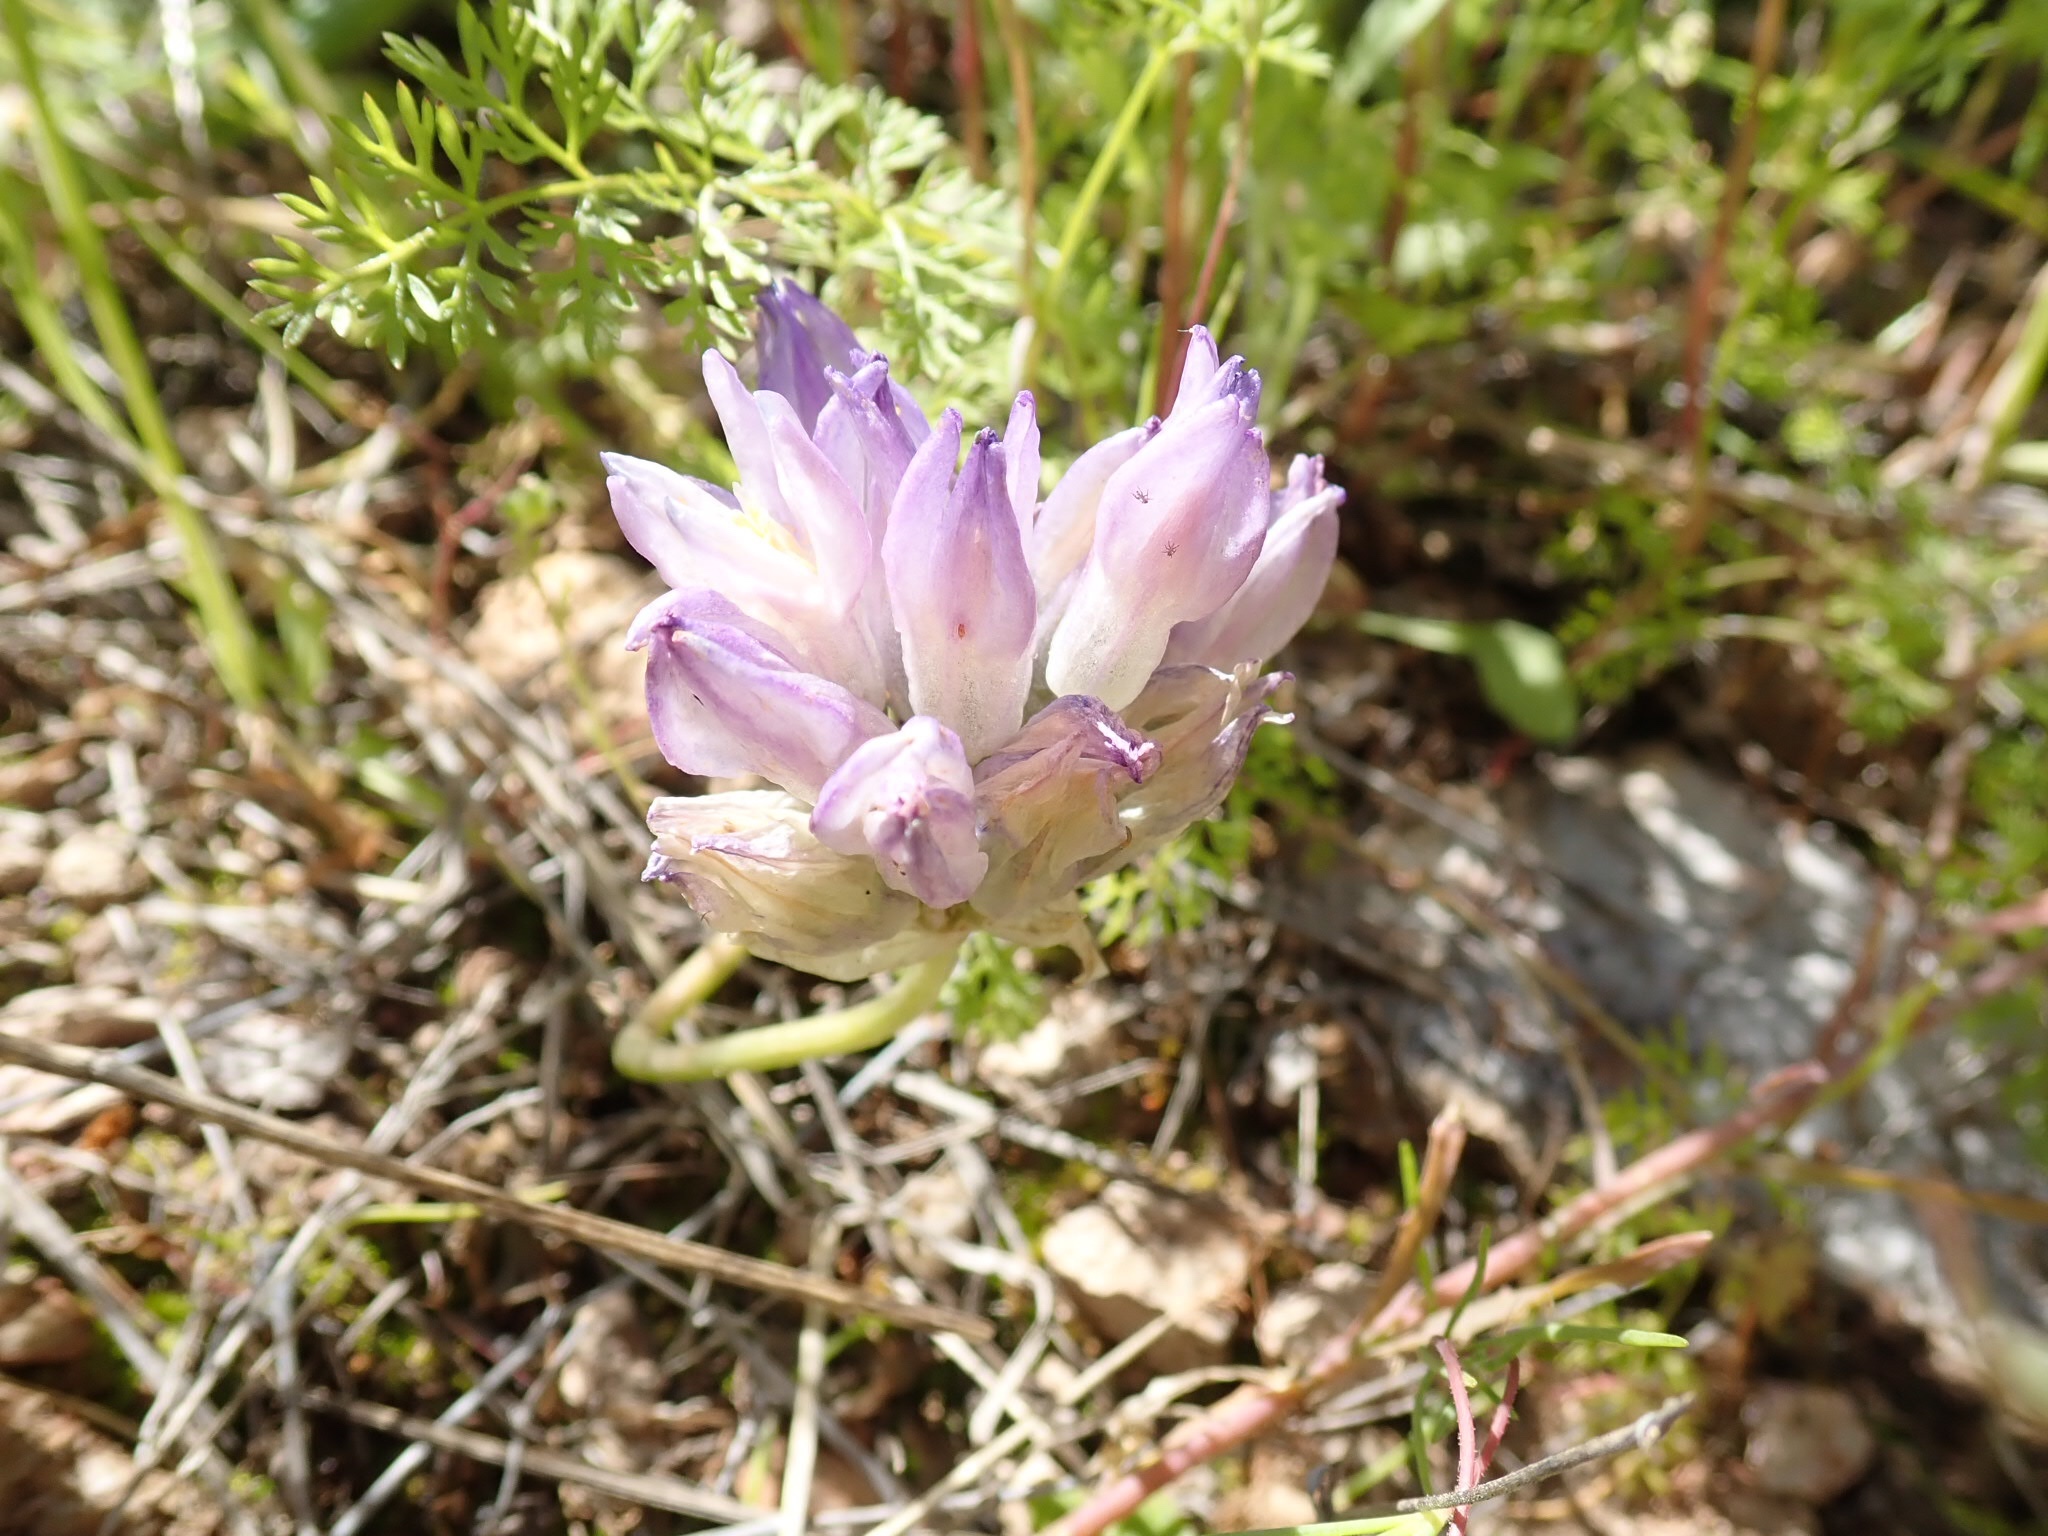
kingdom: Plantae
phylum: Tracheophyta
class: Liliopsida
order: Asparagales
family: Asparagaceae
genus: Dipterostemon
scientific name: Dipterostemon capitatus
